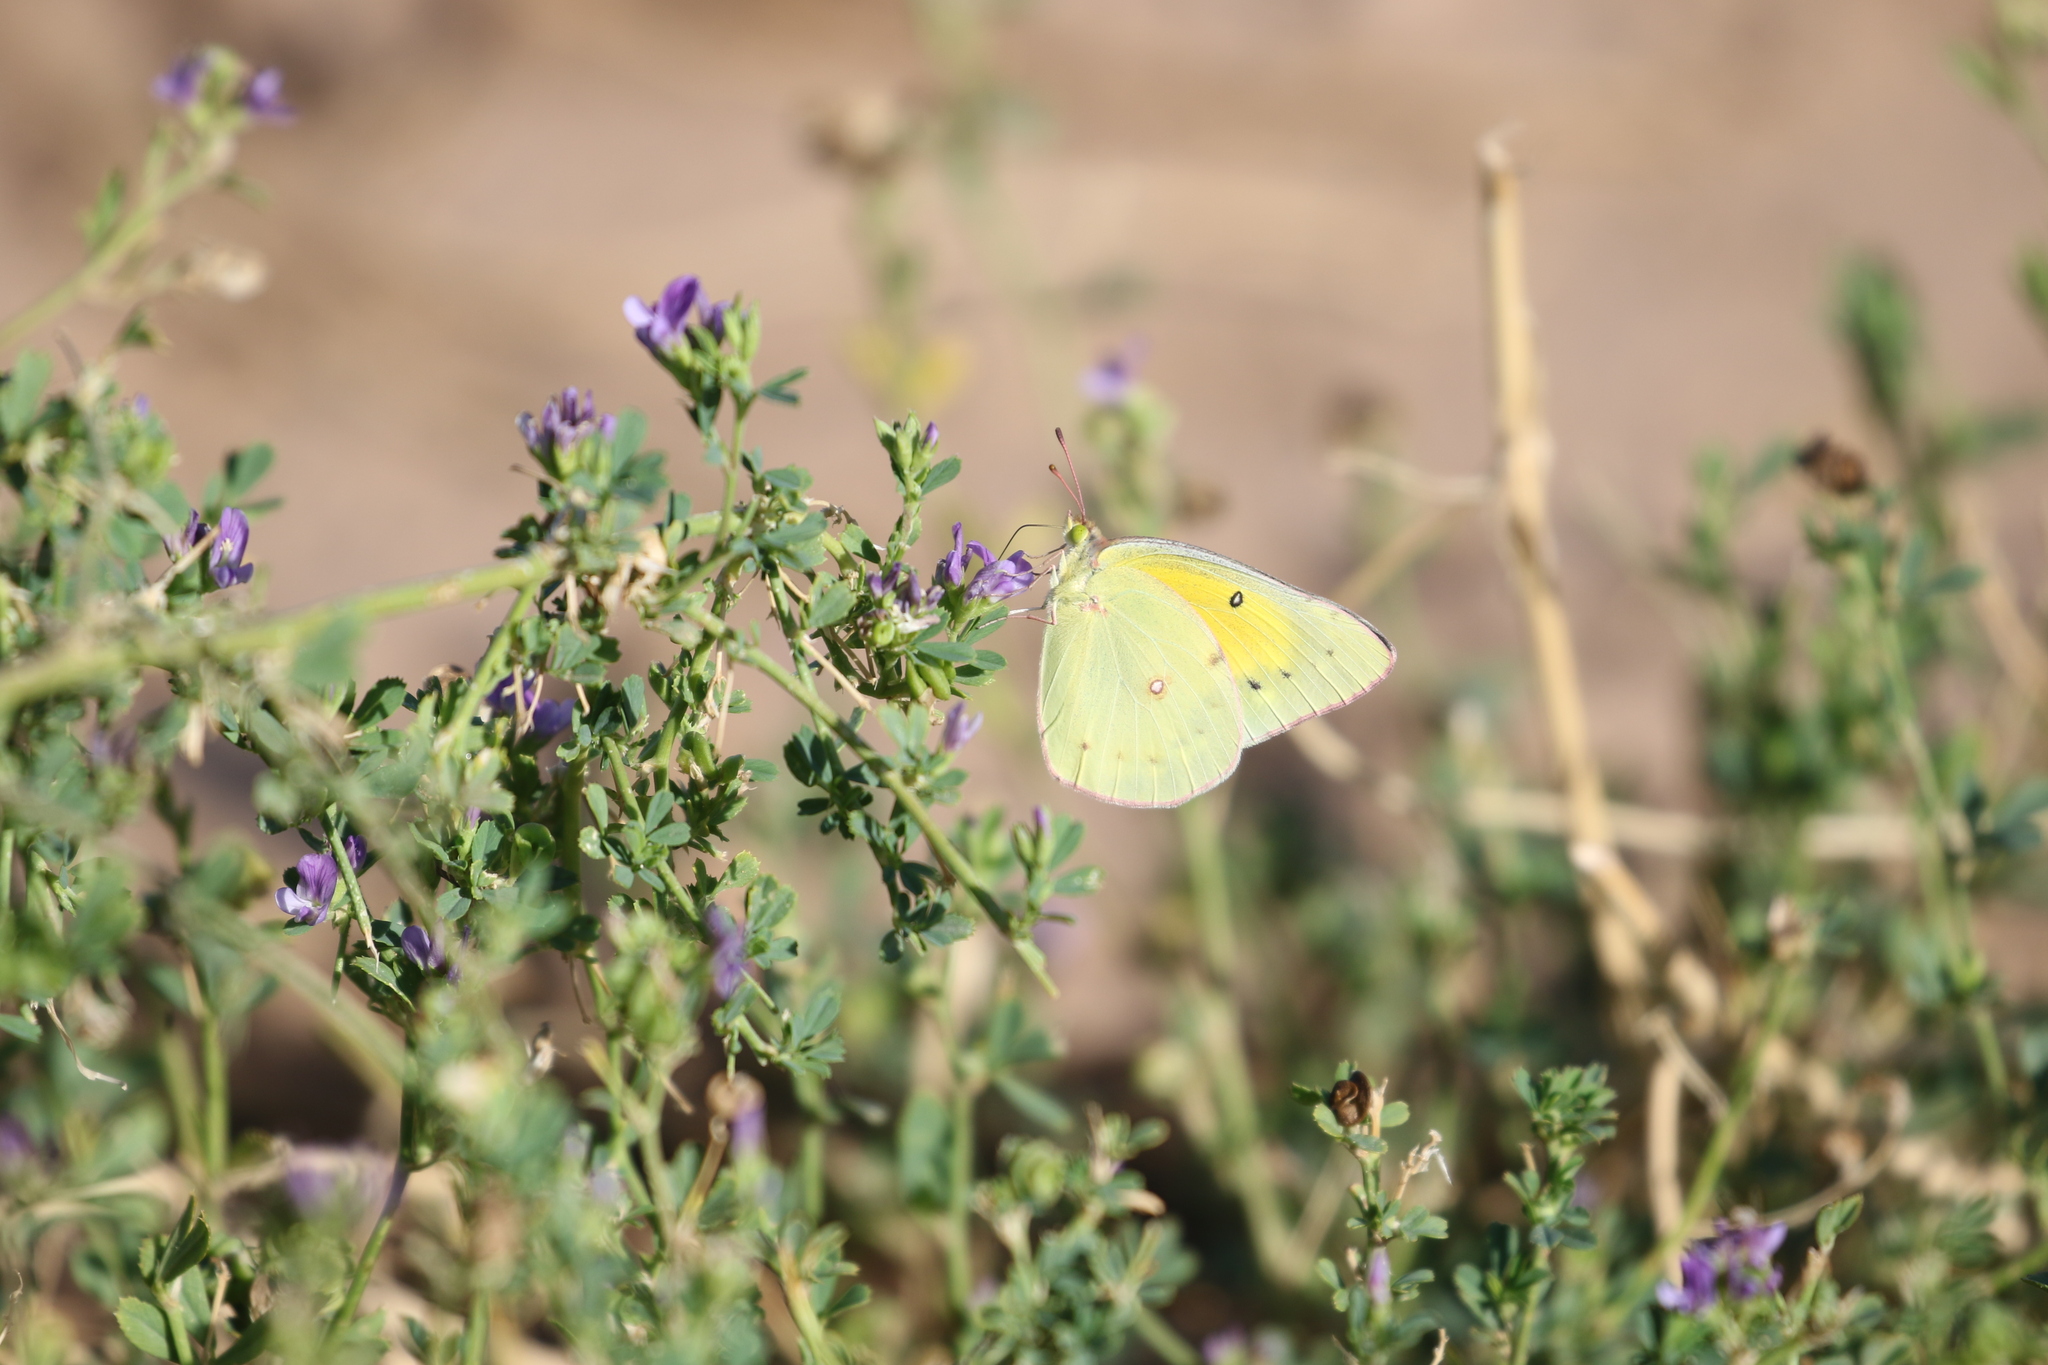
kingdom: Animalia
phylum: Arthropoda
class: Insecta
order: Lepidoptera
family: Pieridae
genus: Colias
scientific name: Colias eurytheme
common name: Alfalfa butterfly
